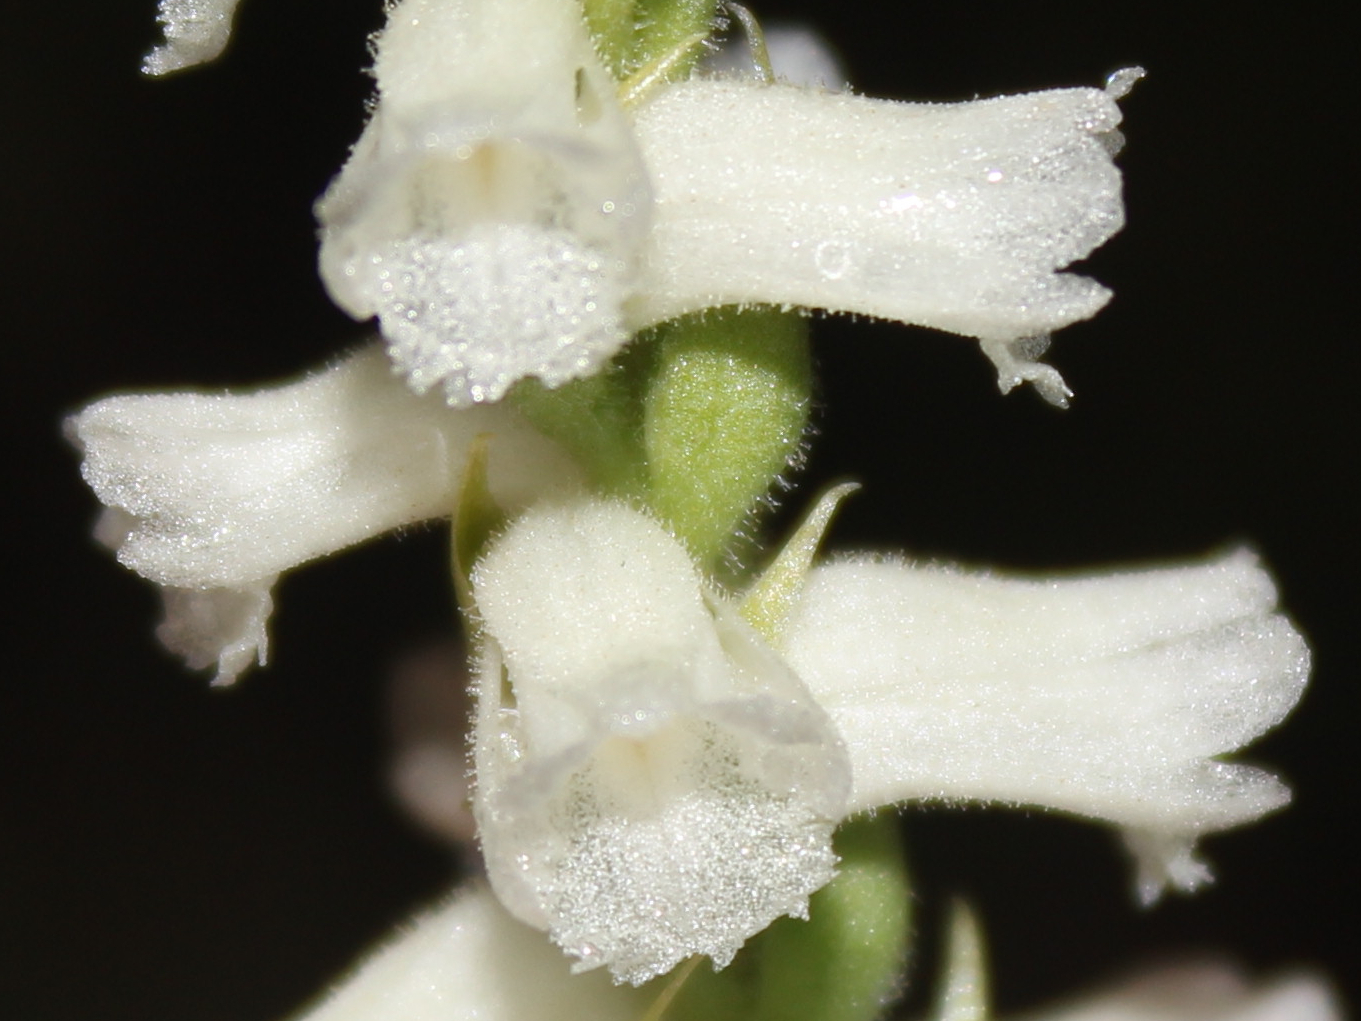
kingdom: Plantae
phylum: Tracheophyta
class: Liliopsida
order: Asparagales
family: Orchidaceae
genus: Spiranthes
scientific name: Spiranthes arcisepala
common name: Appalachian ladies'-tresses
